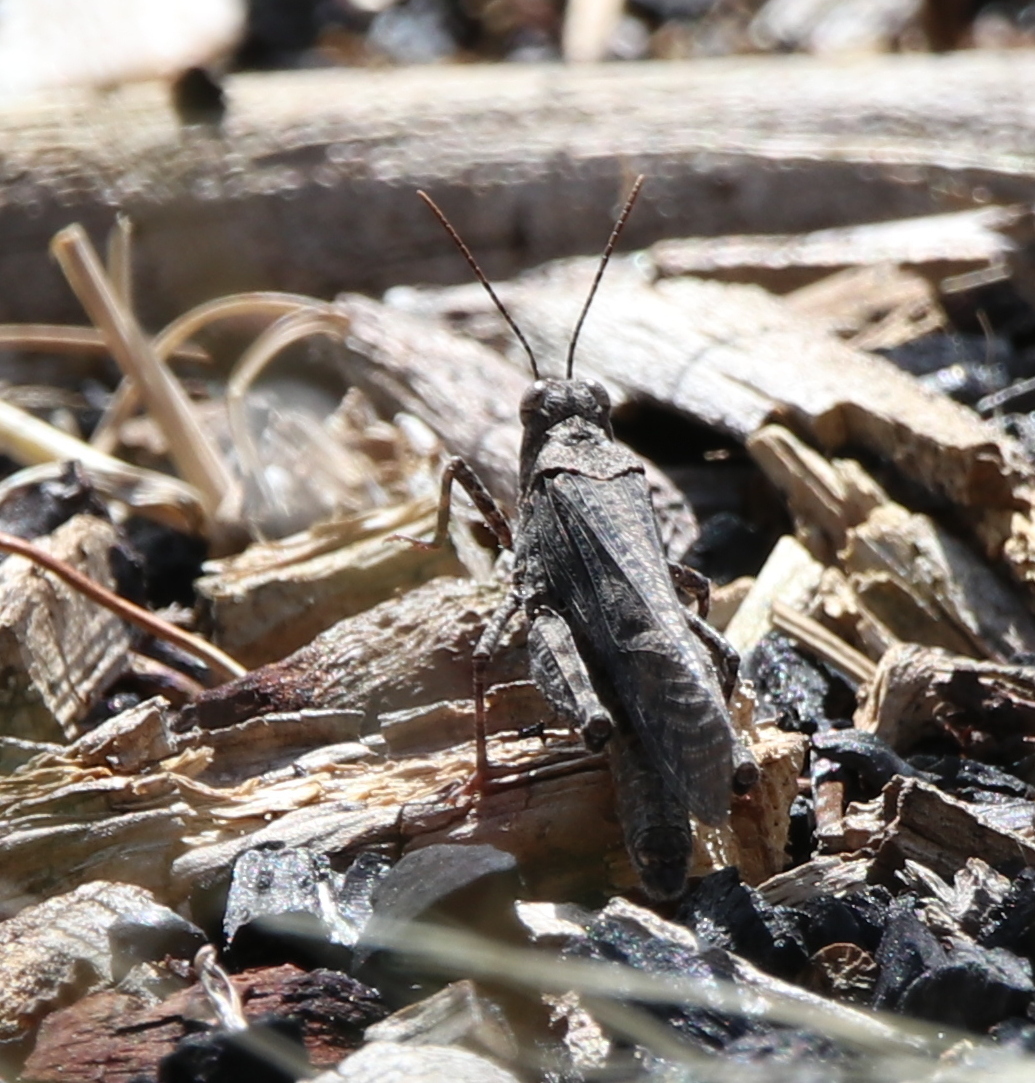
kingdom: Animalia
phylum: Arthropoda
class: Insecta
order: Orthoptera
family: Acrididae
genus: Trimerotropis
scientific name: Trimerotropis verruculata
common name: Crackling forest grasshopper
